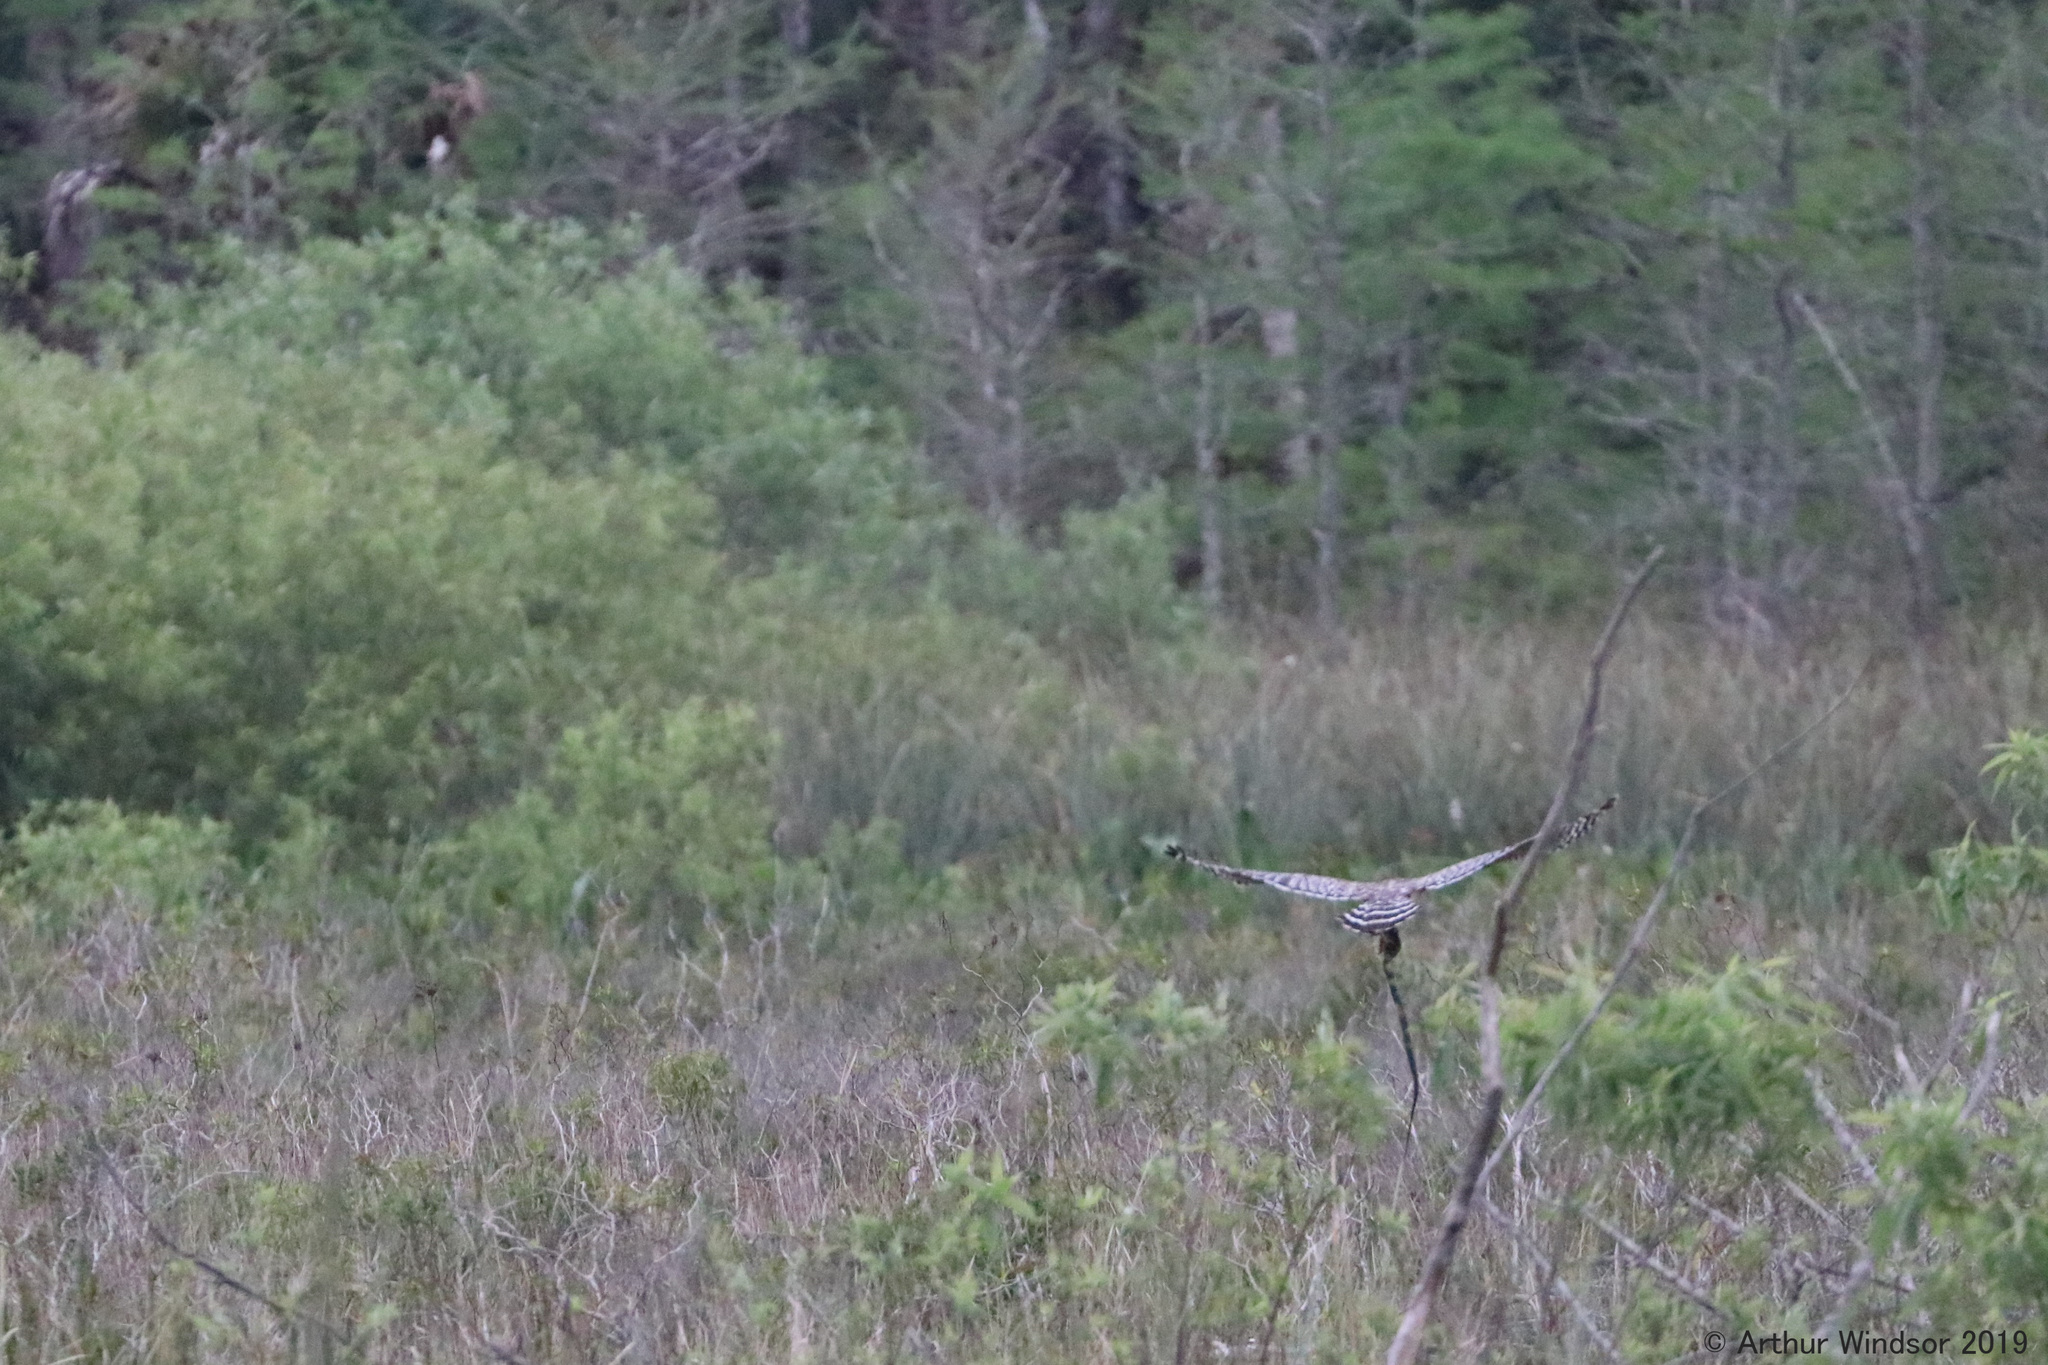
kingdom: Animalia
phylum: Chordata
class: Aves
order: Accipitriformes
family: Accipitridae
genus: Buteo
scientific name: Buteo lineatus
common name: Red-shouldered hawk
